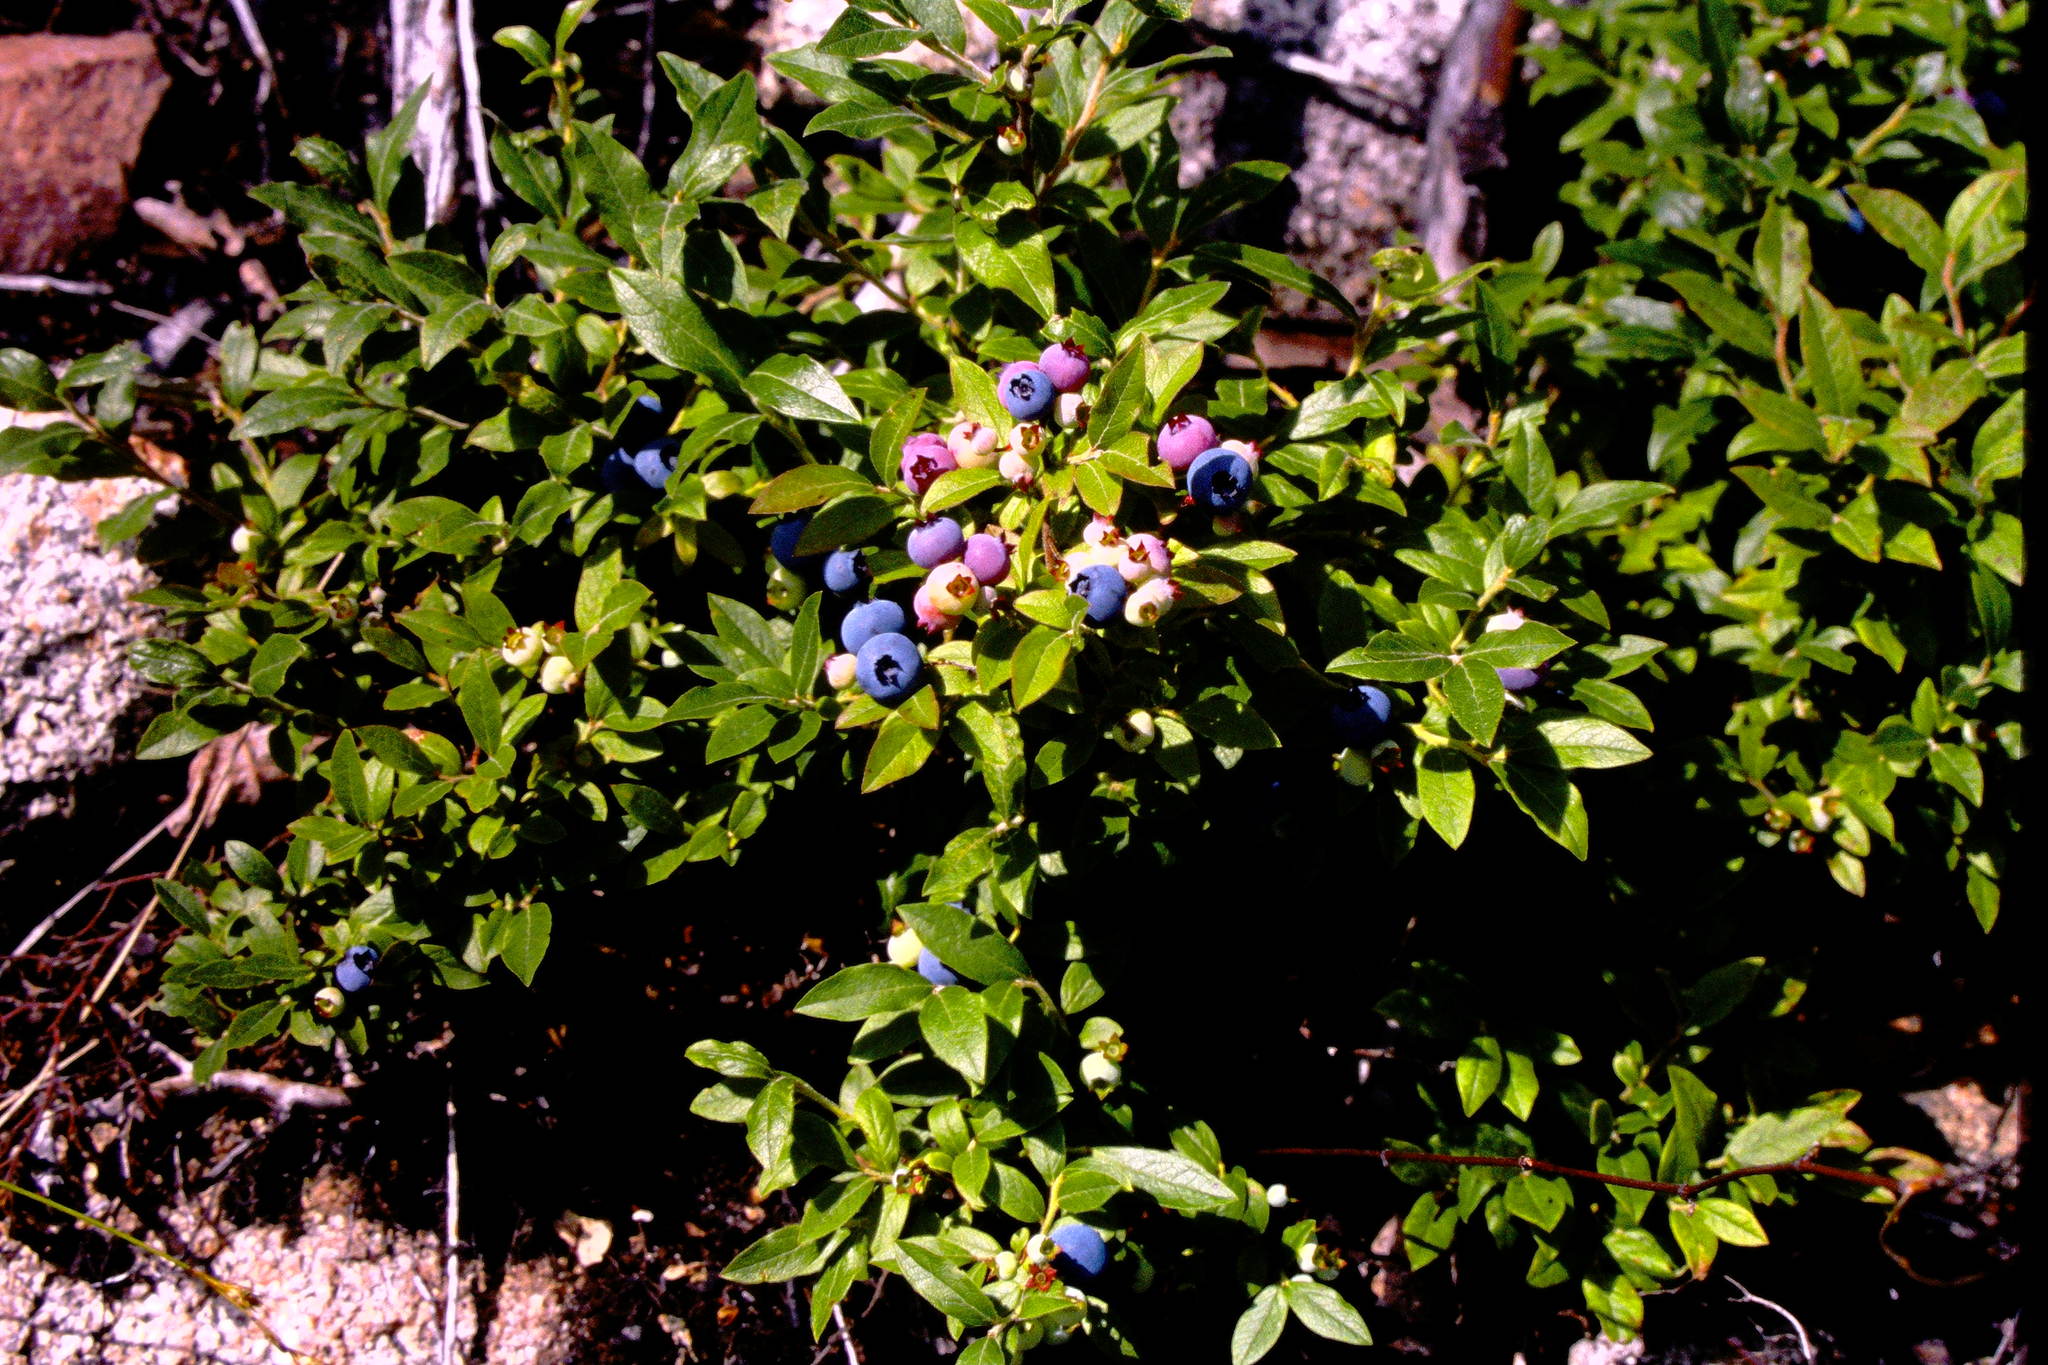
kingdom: Plantae
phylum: Tracheophyta
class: Magnoliopsida
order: Ericales
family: Ericaceae
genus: Vaccinium
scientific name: Vaccinium myrtilloides
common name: Canada blueberry
